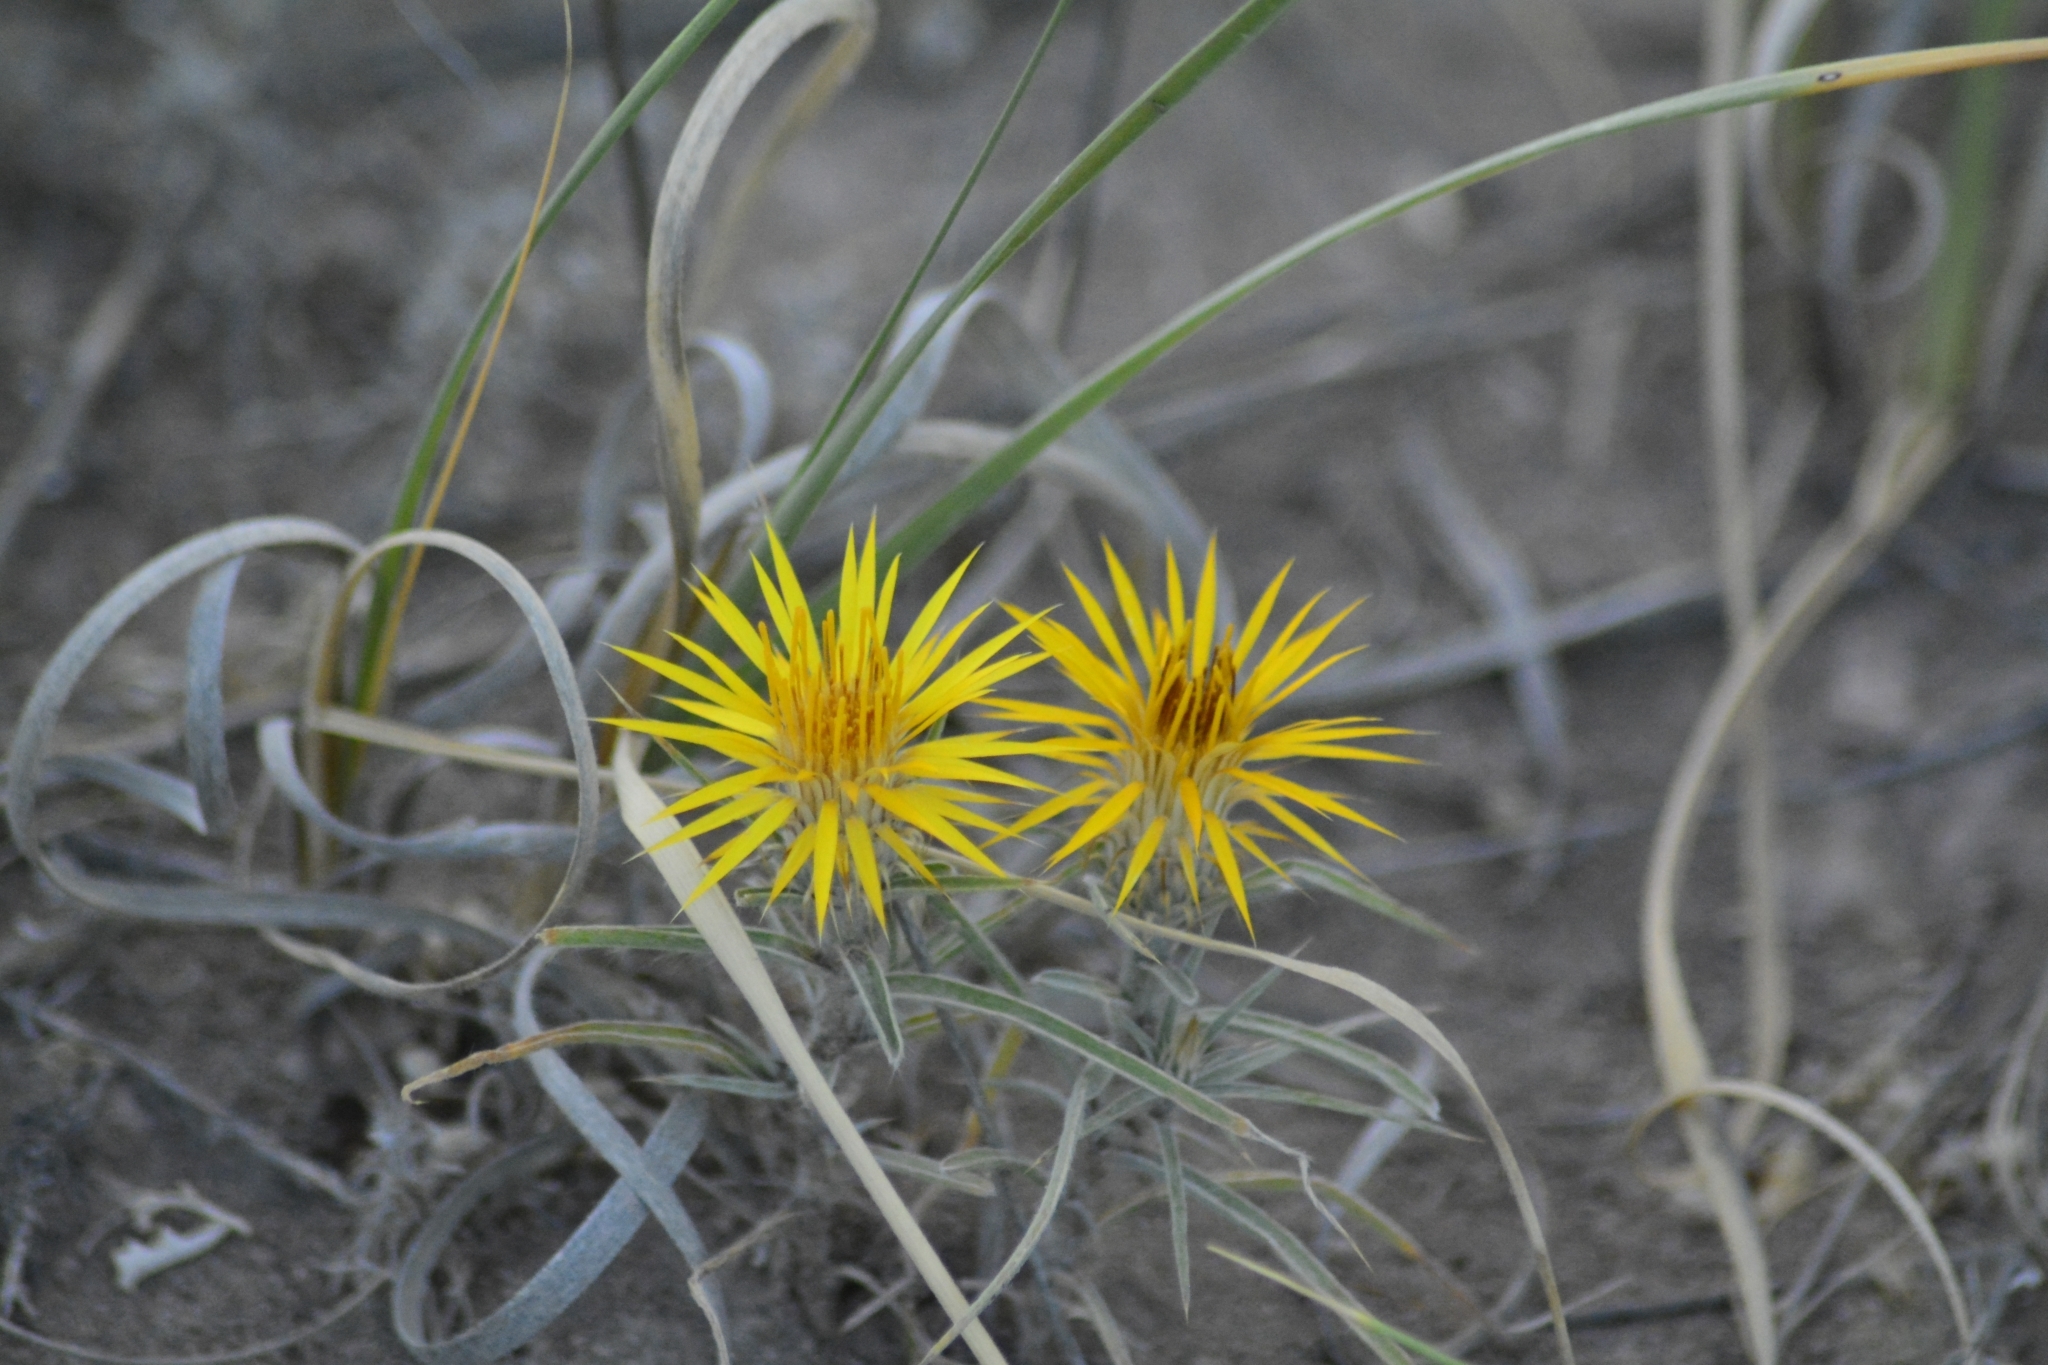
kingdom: Plantae
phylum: Tracheophyta
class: Magnoliopsida
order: Asterales
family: Asteraceae
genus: Doniophyton
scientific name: Doniophyton anomalum
